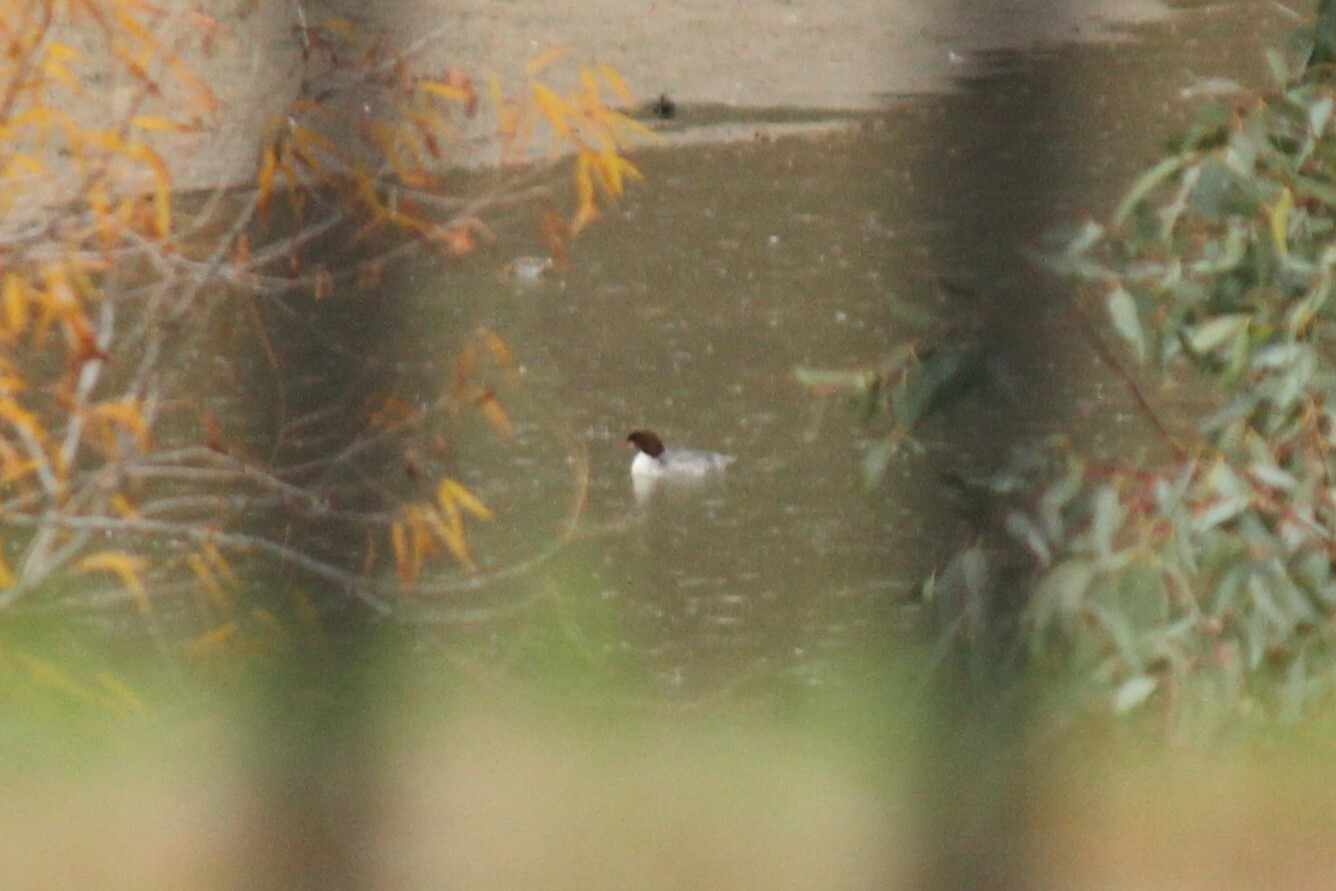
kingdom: Animalia
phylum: Chordata
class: Aves
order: Anseriformes
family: Anatidae
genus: Mergus
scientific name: Mergus merganser
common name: Common merganser
